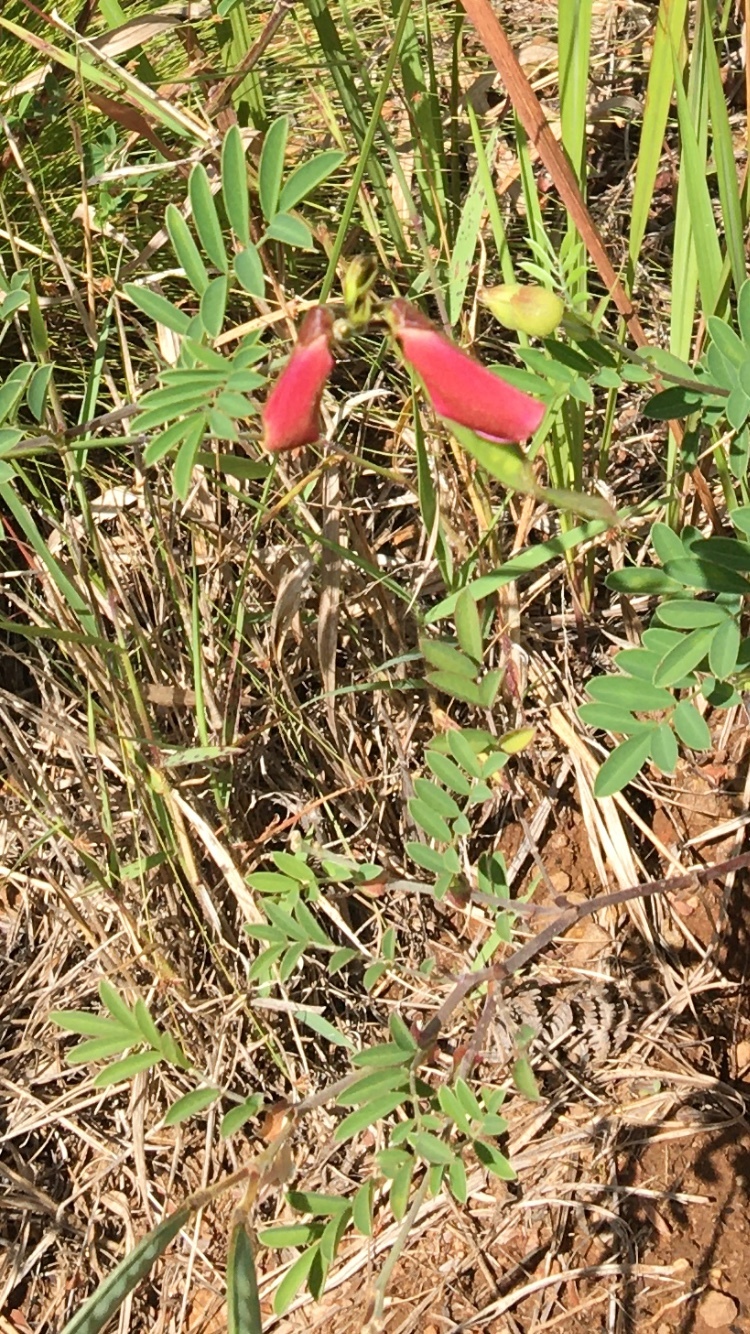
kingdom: Plantae
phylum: Tracheophyta
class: Magnoliopsida
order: Fabales
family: Fabaceae
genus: Tephrosia
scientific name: Tephrosia grandiflora
